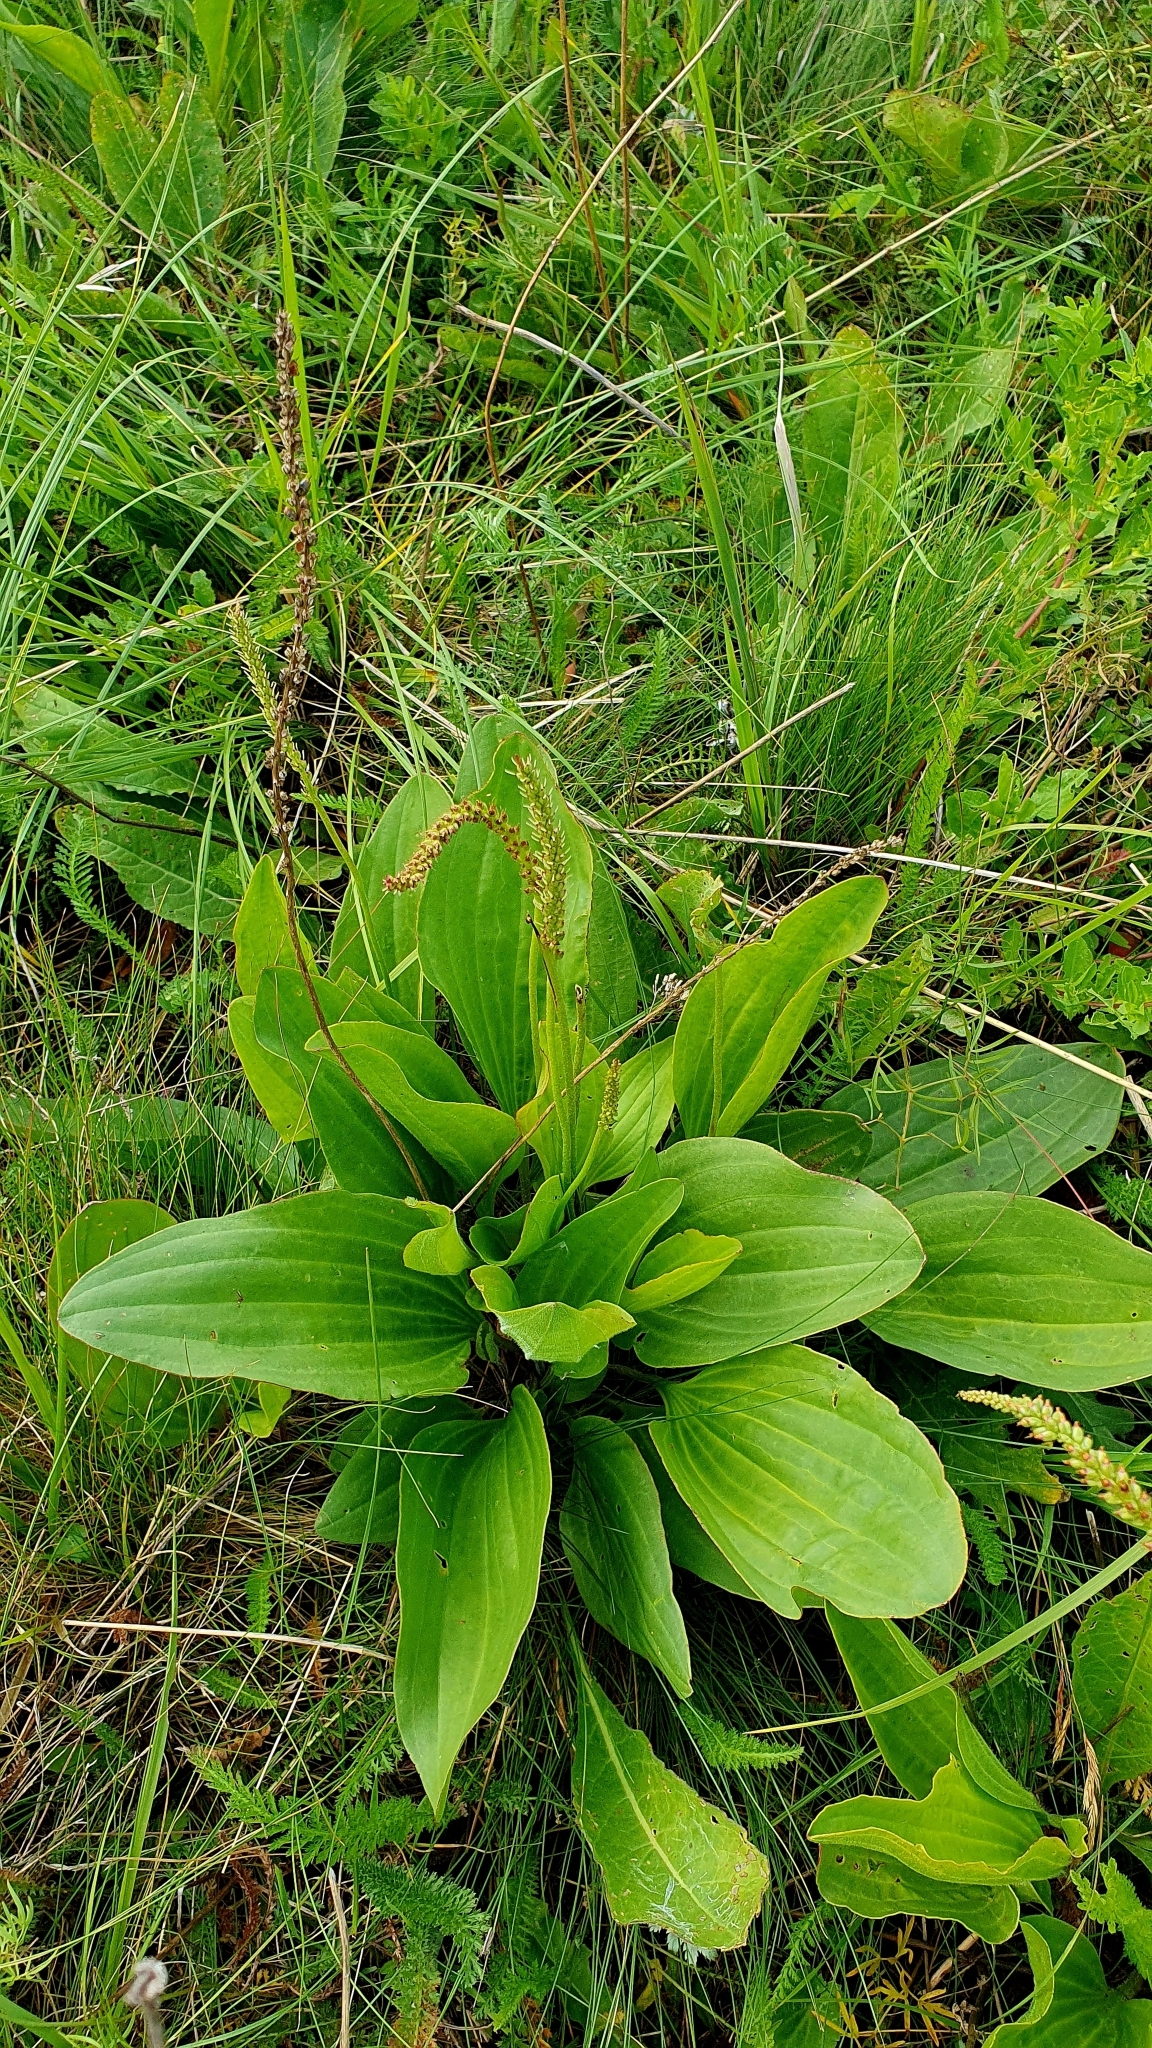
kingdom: Plantae
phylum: Tracheophyta
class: Magnoliopsida
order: Lamiales
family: Plantaginaceae
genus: Plantago
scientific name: Plantago cornuti
